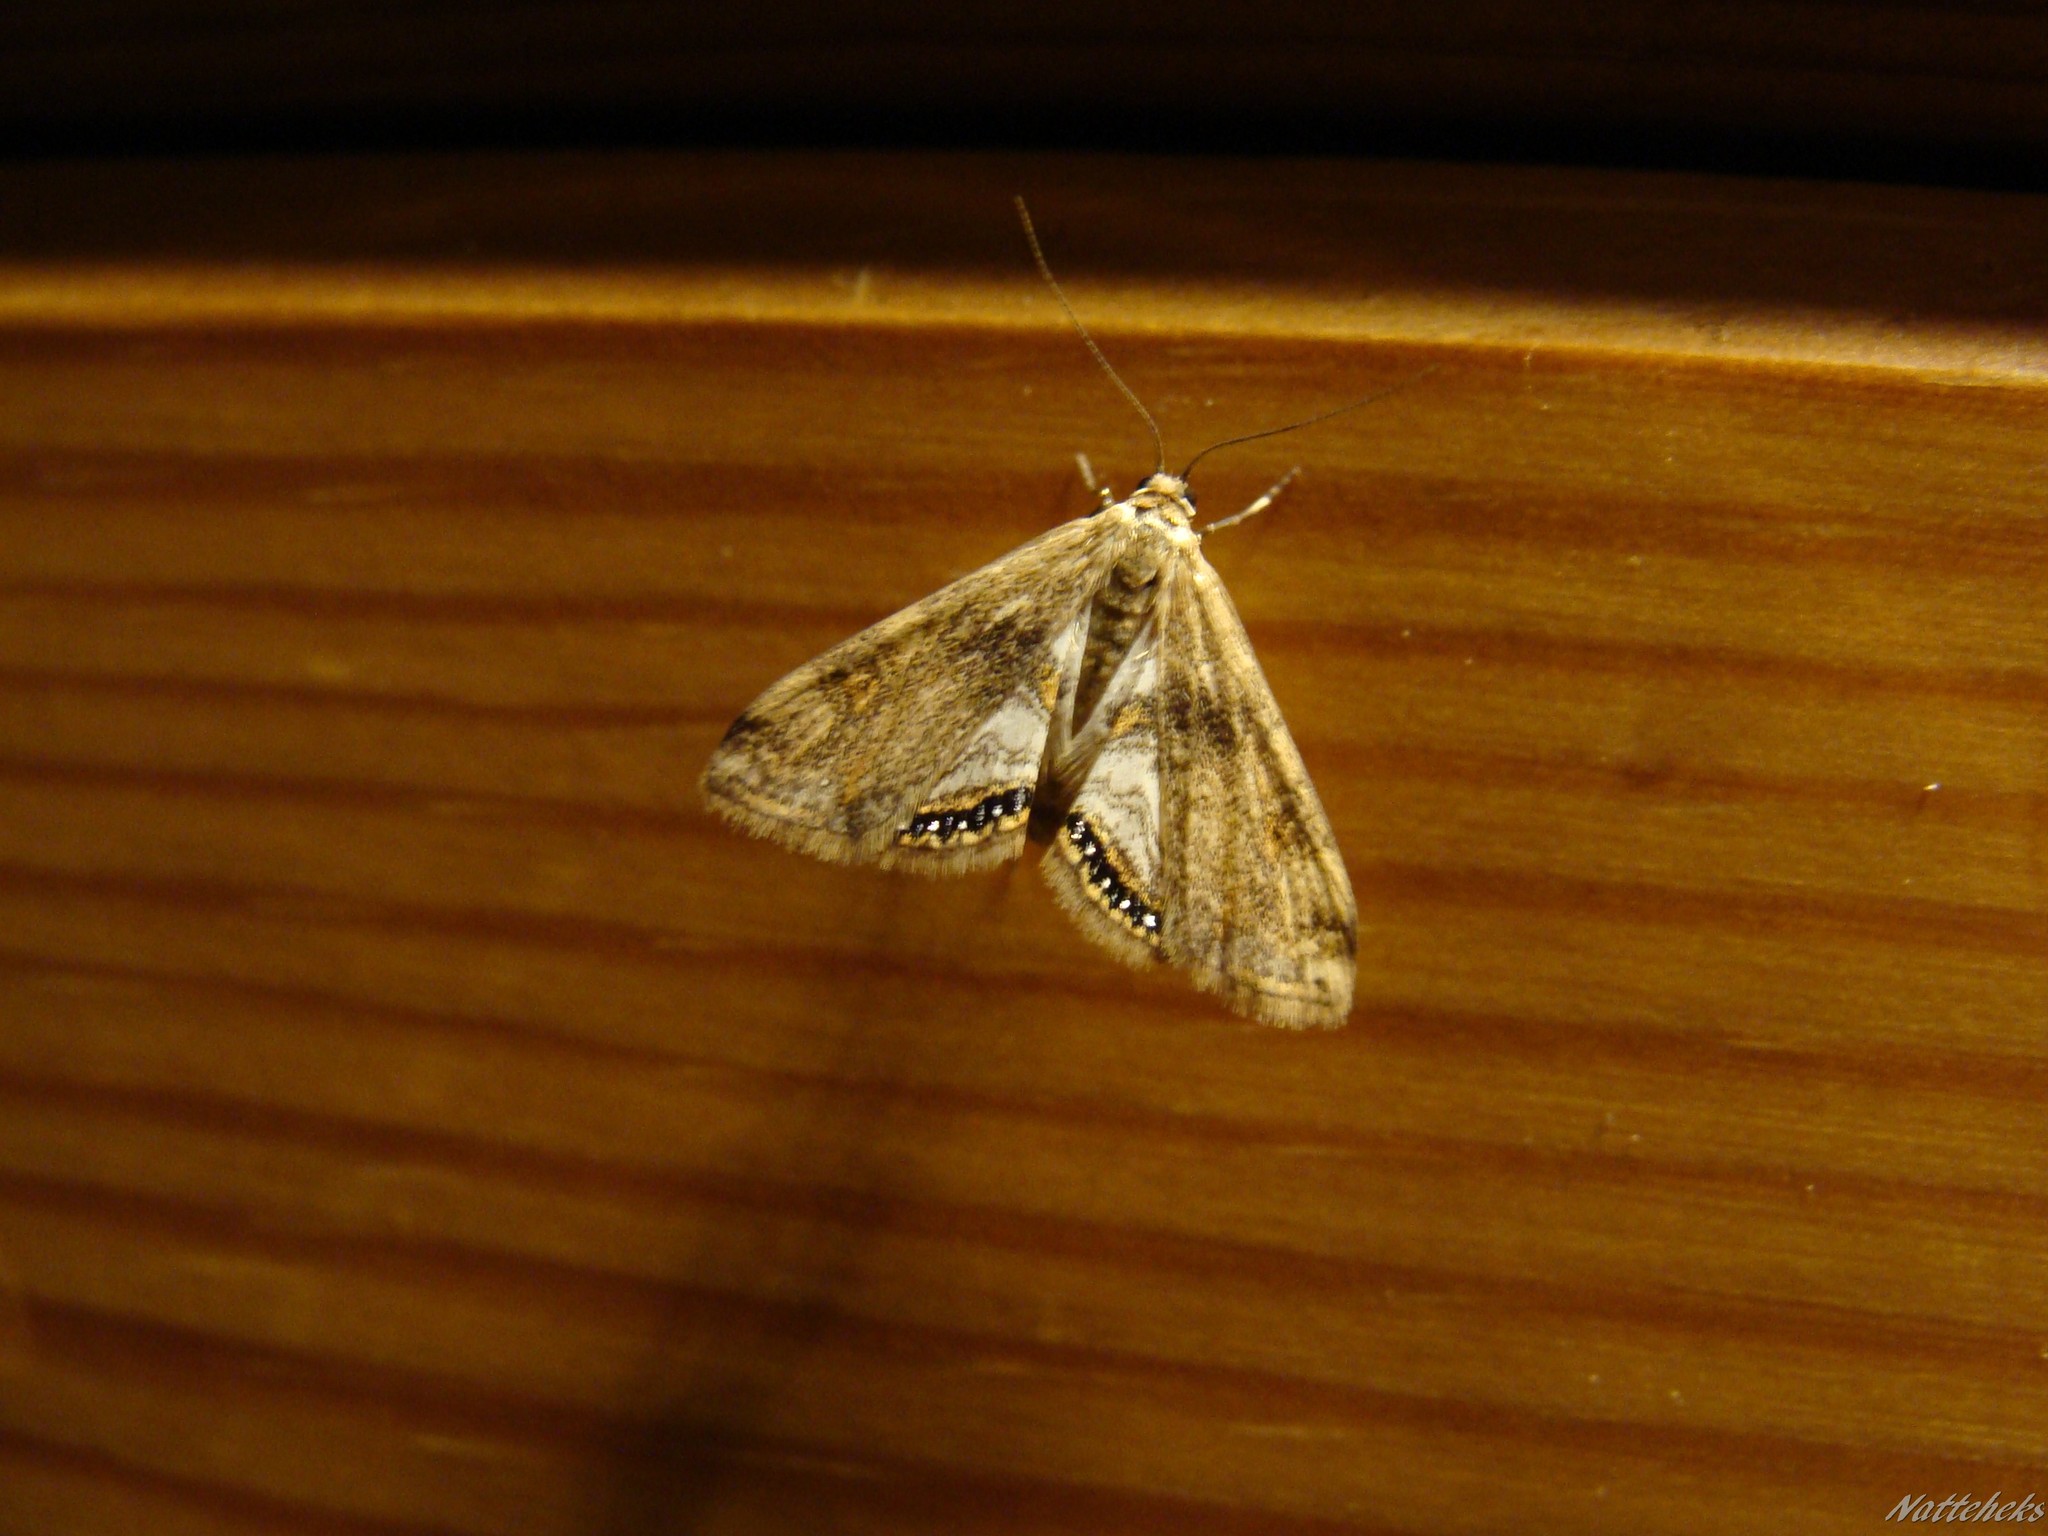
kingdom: Animalia
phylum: Arthropoda
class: Insecta
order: Lepidoptera
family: Crambidae
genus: Cataclysta
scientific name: Cataclysta lemnata
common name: Small china-mark
